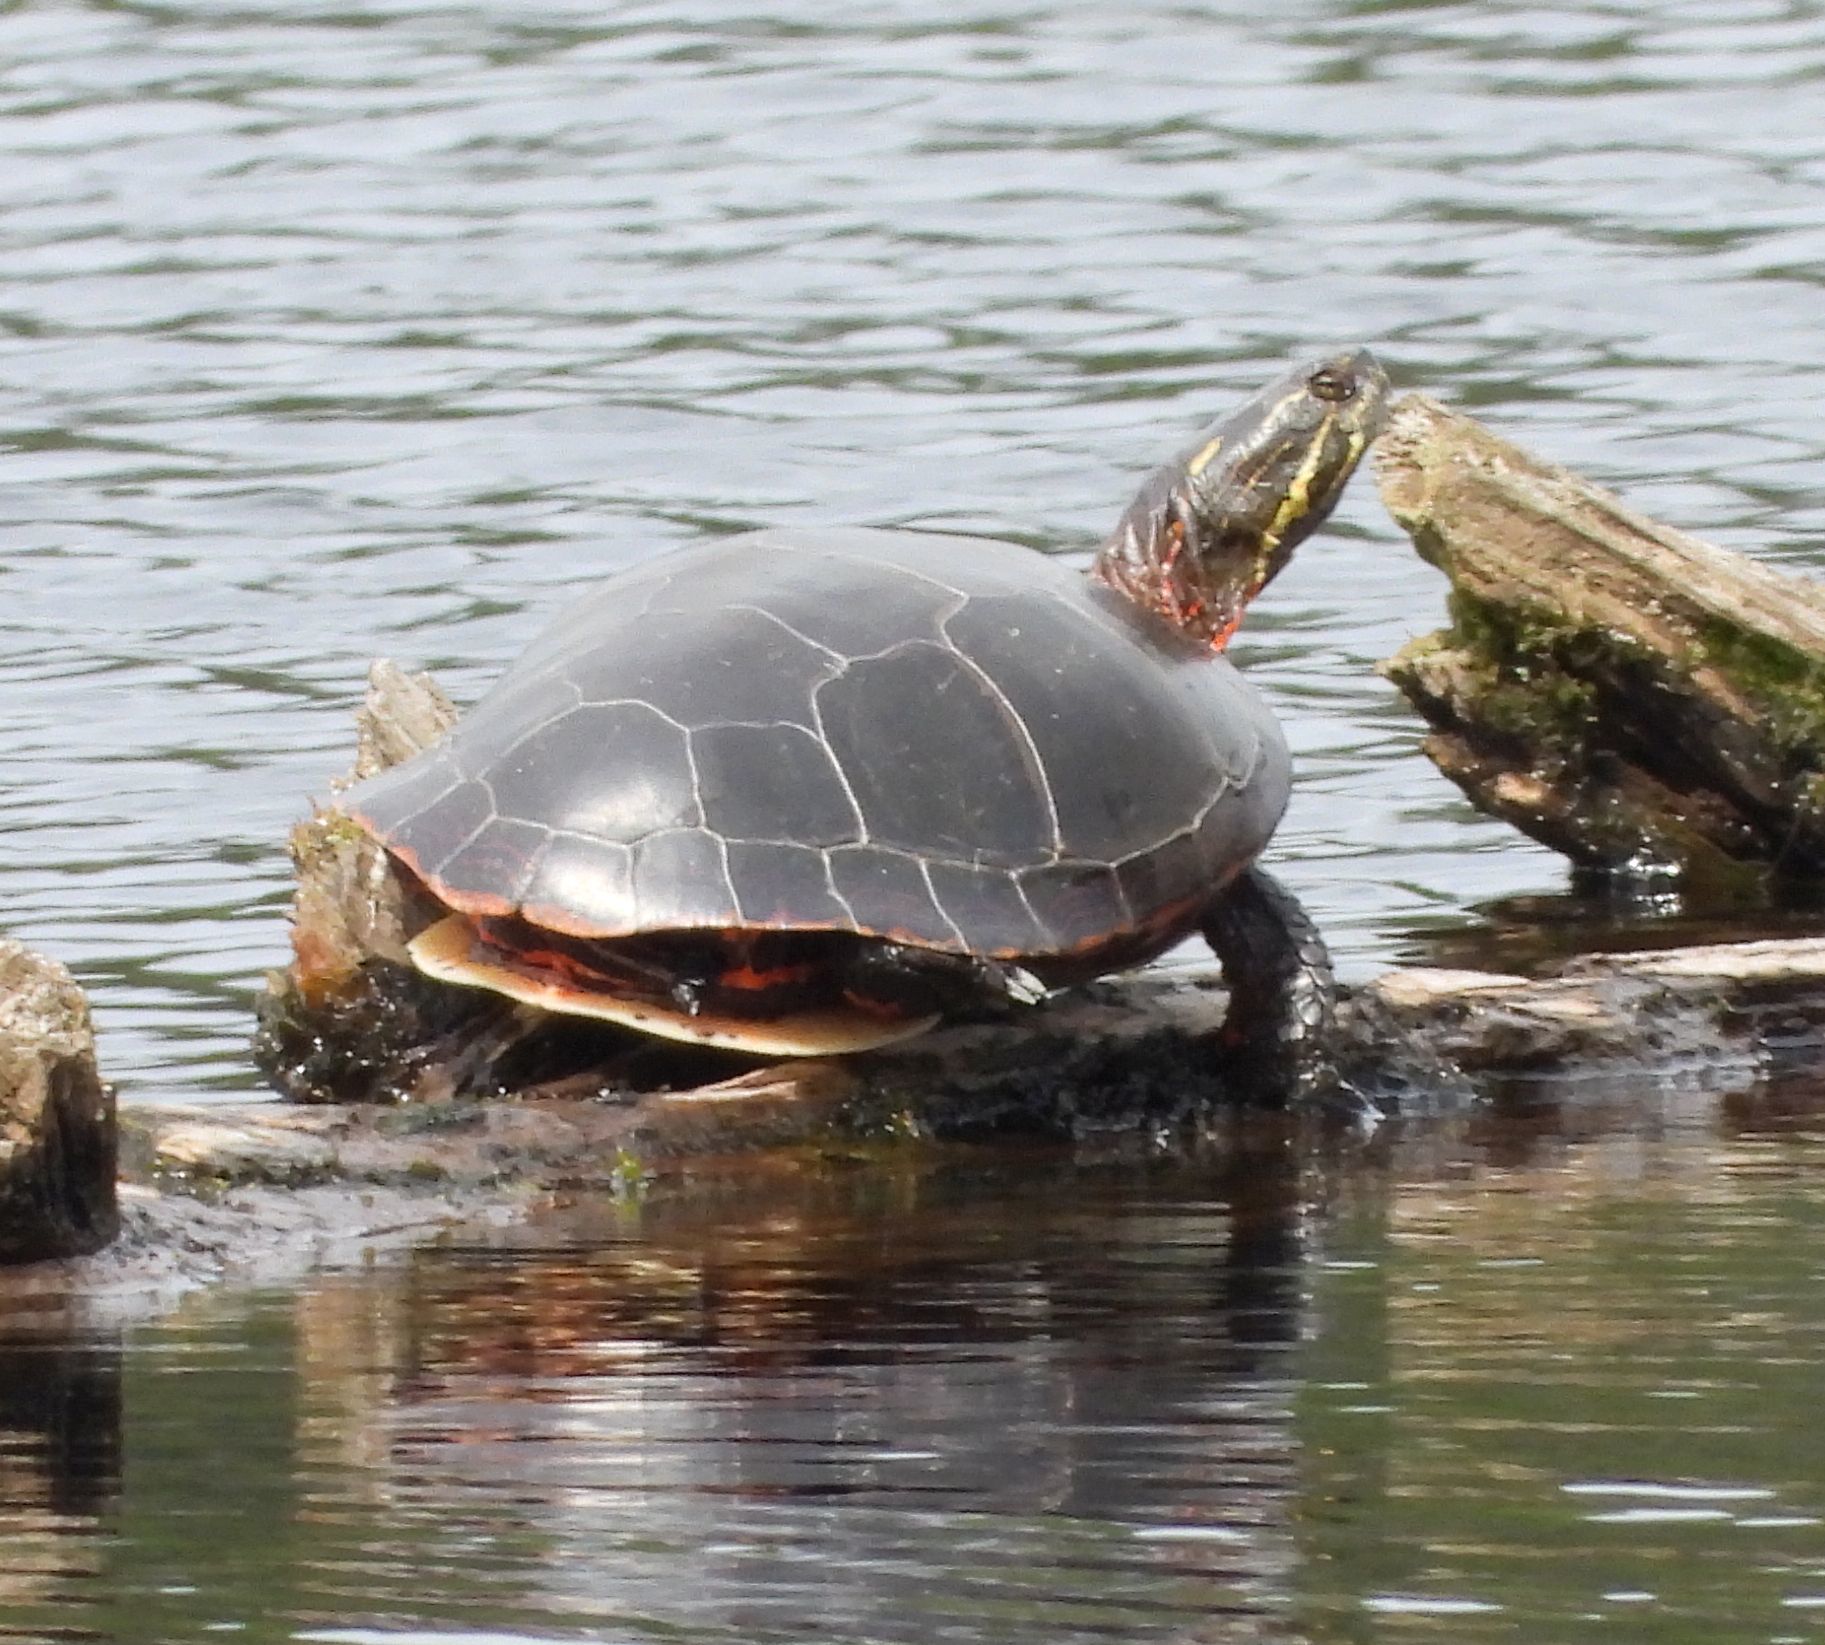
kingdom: Animalia
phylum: Chordata
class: Testudines
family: Emydidae
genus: Chrysemys
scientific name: Chrysemys picta
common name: Painted turtle
